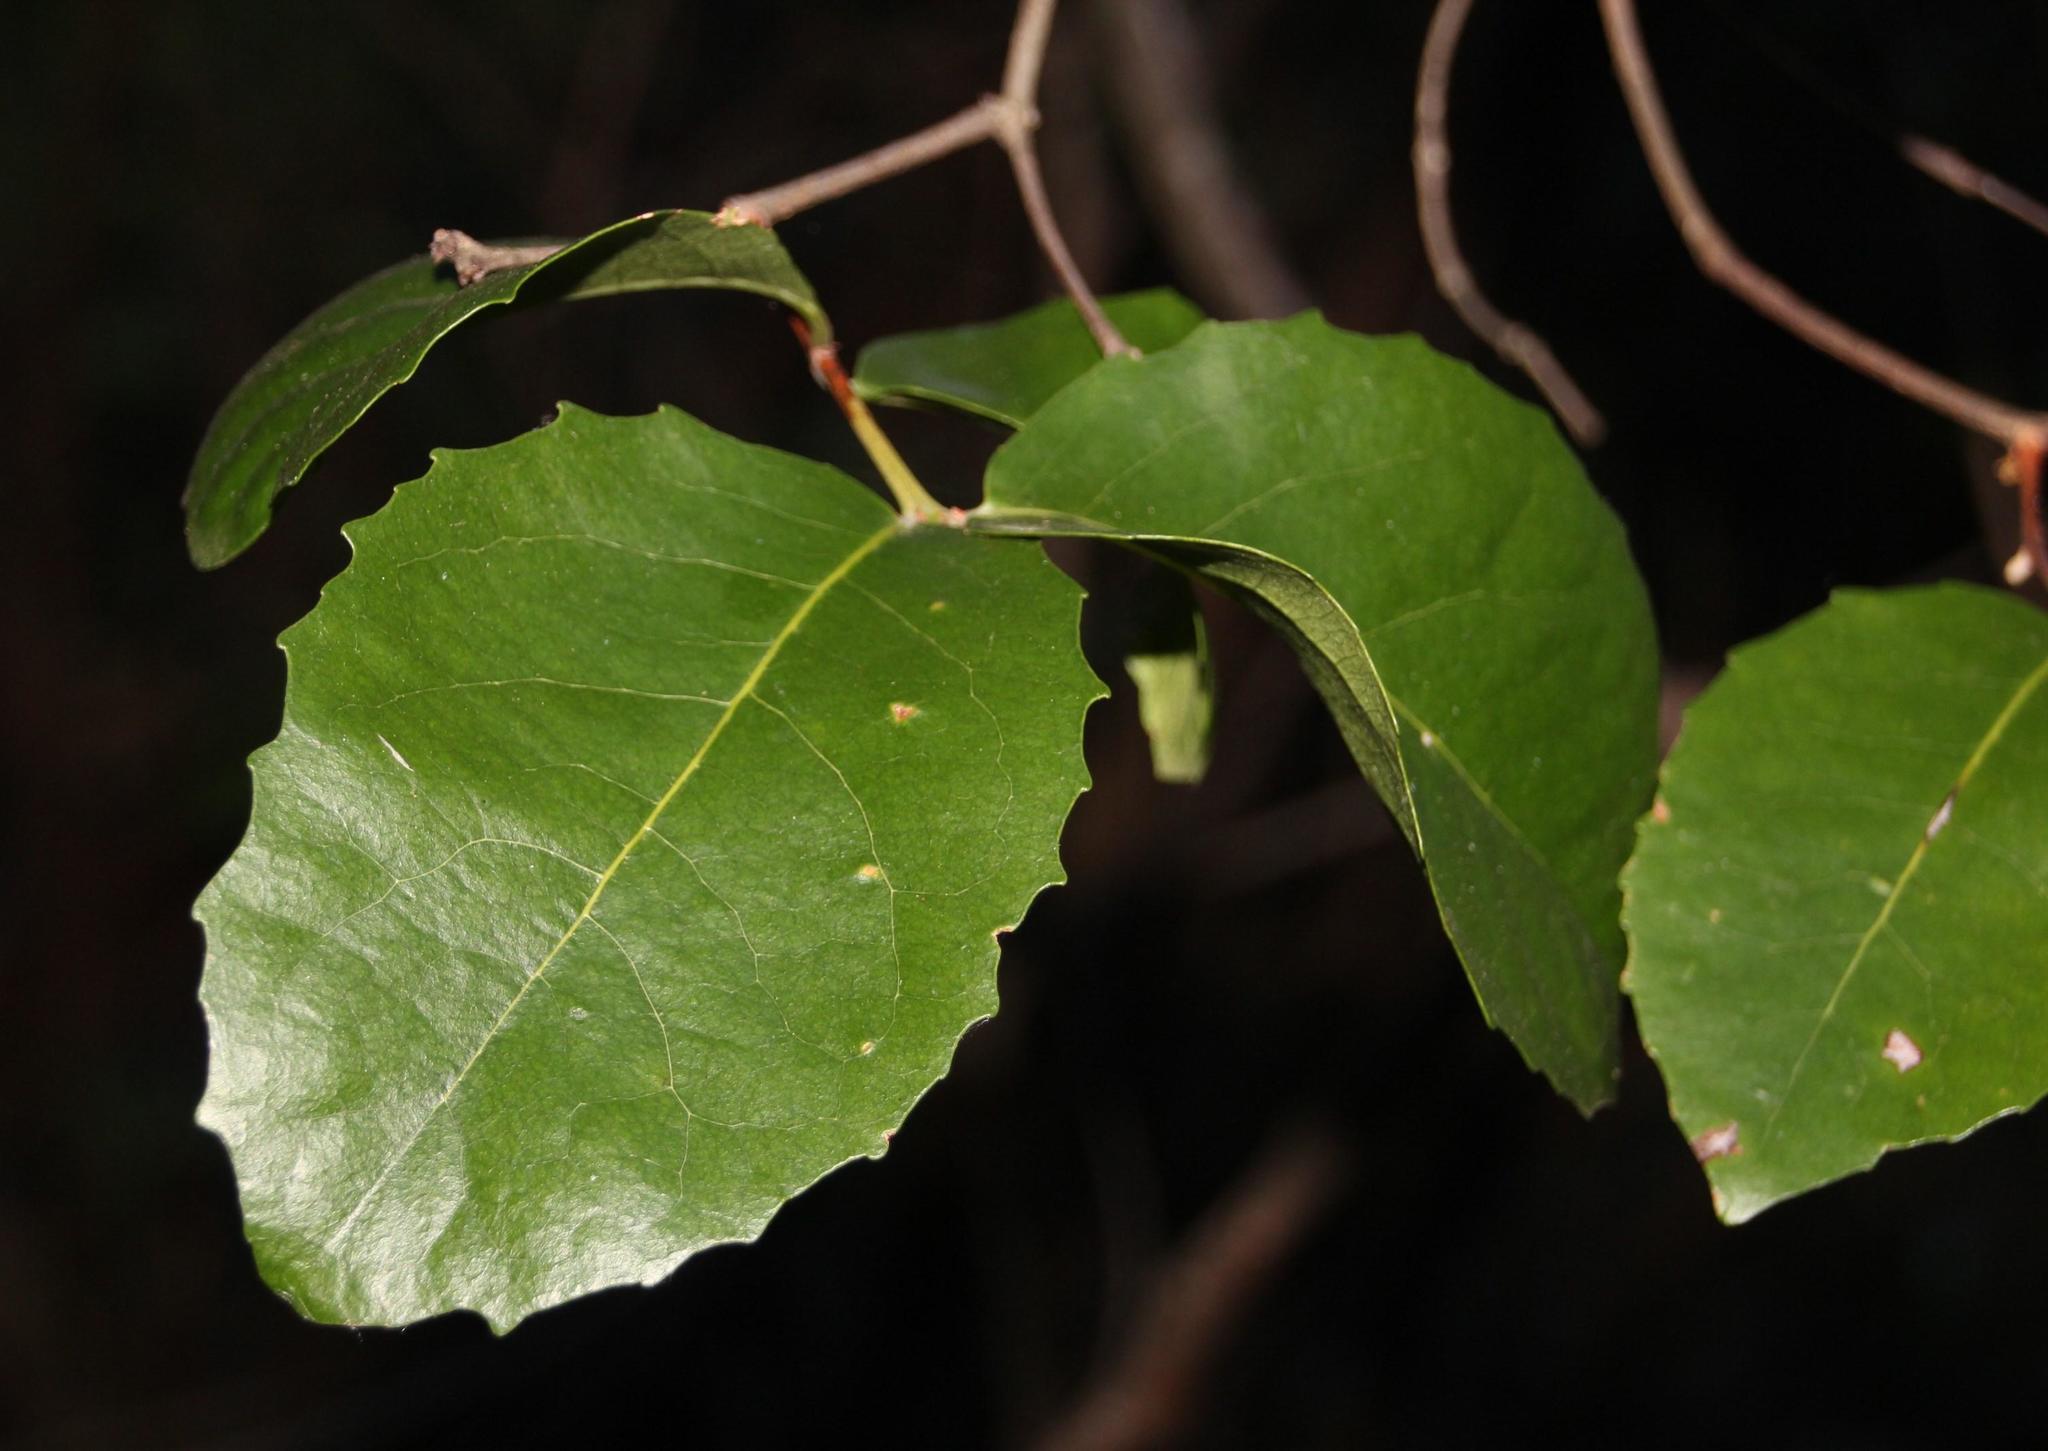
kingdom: Plantae
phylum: Tracheophyta
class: Magnoliopsida
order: Celastrales
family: Celastraceae
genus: Cassine
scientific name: Cassine peragua
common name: Cape saffron
